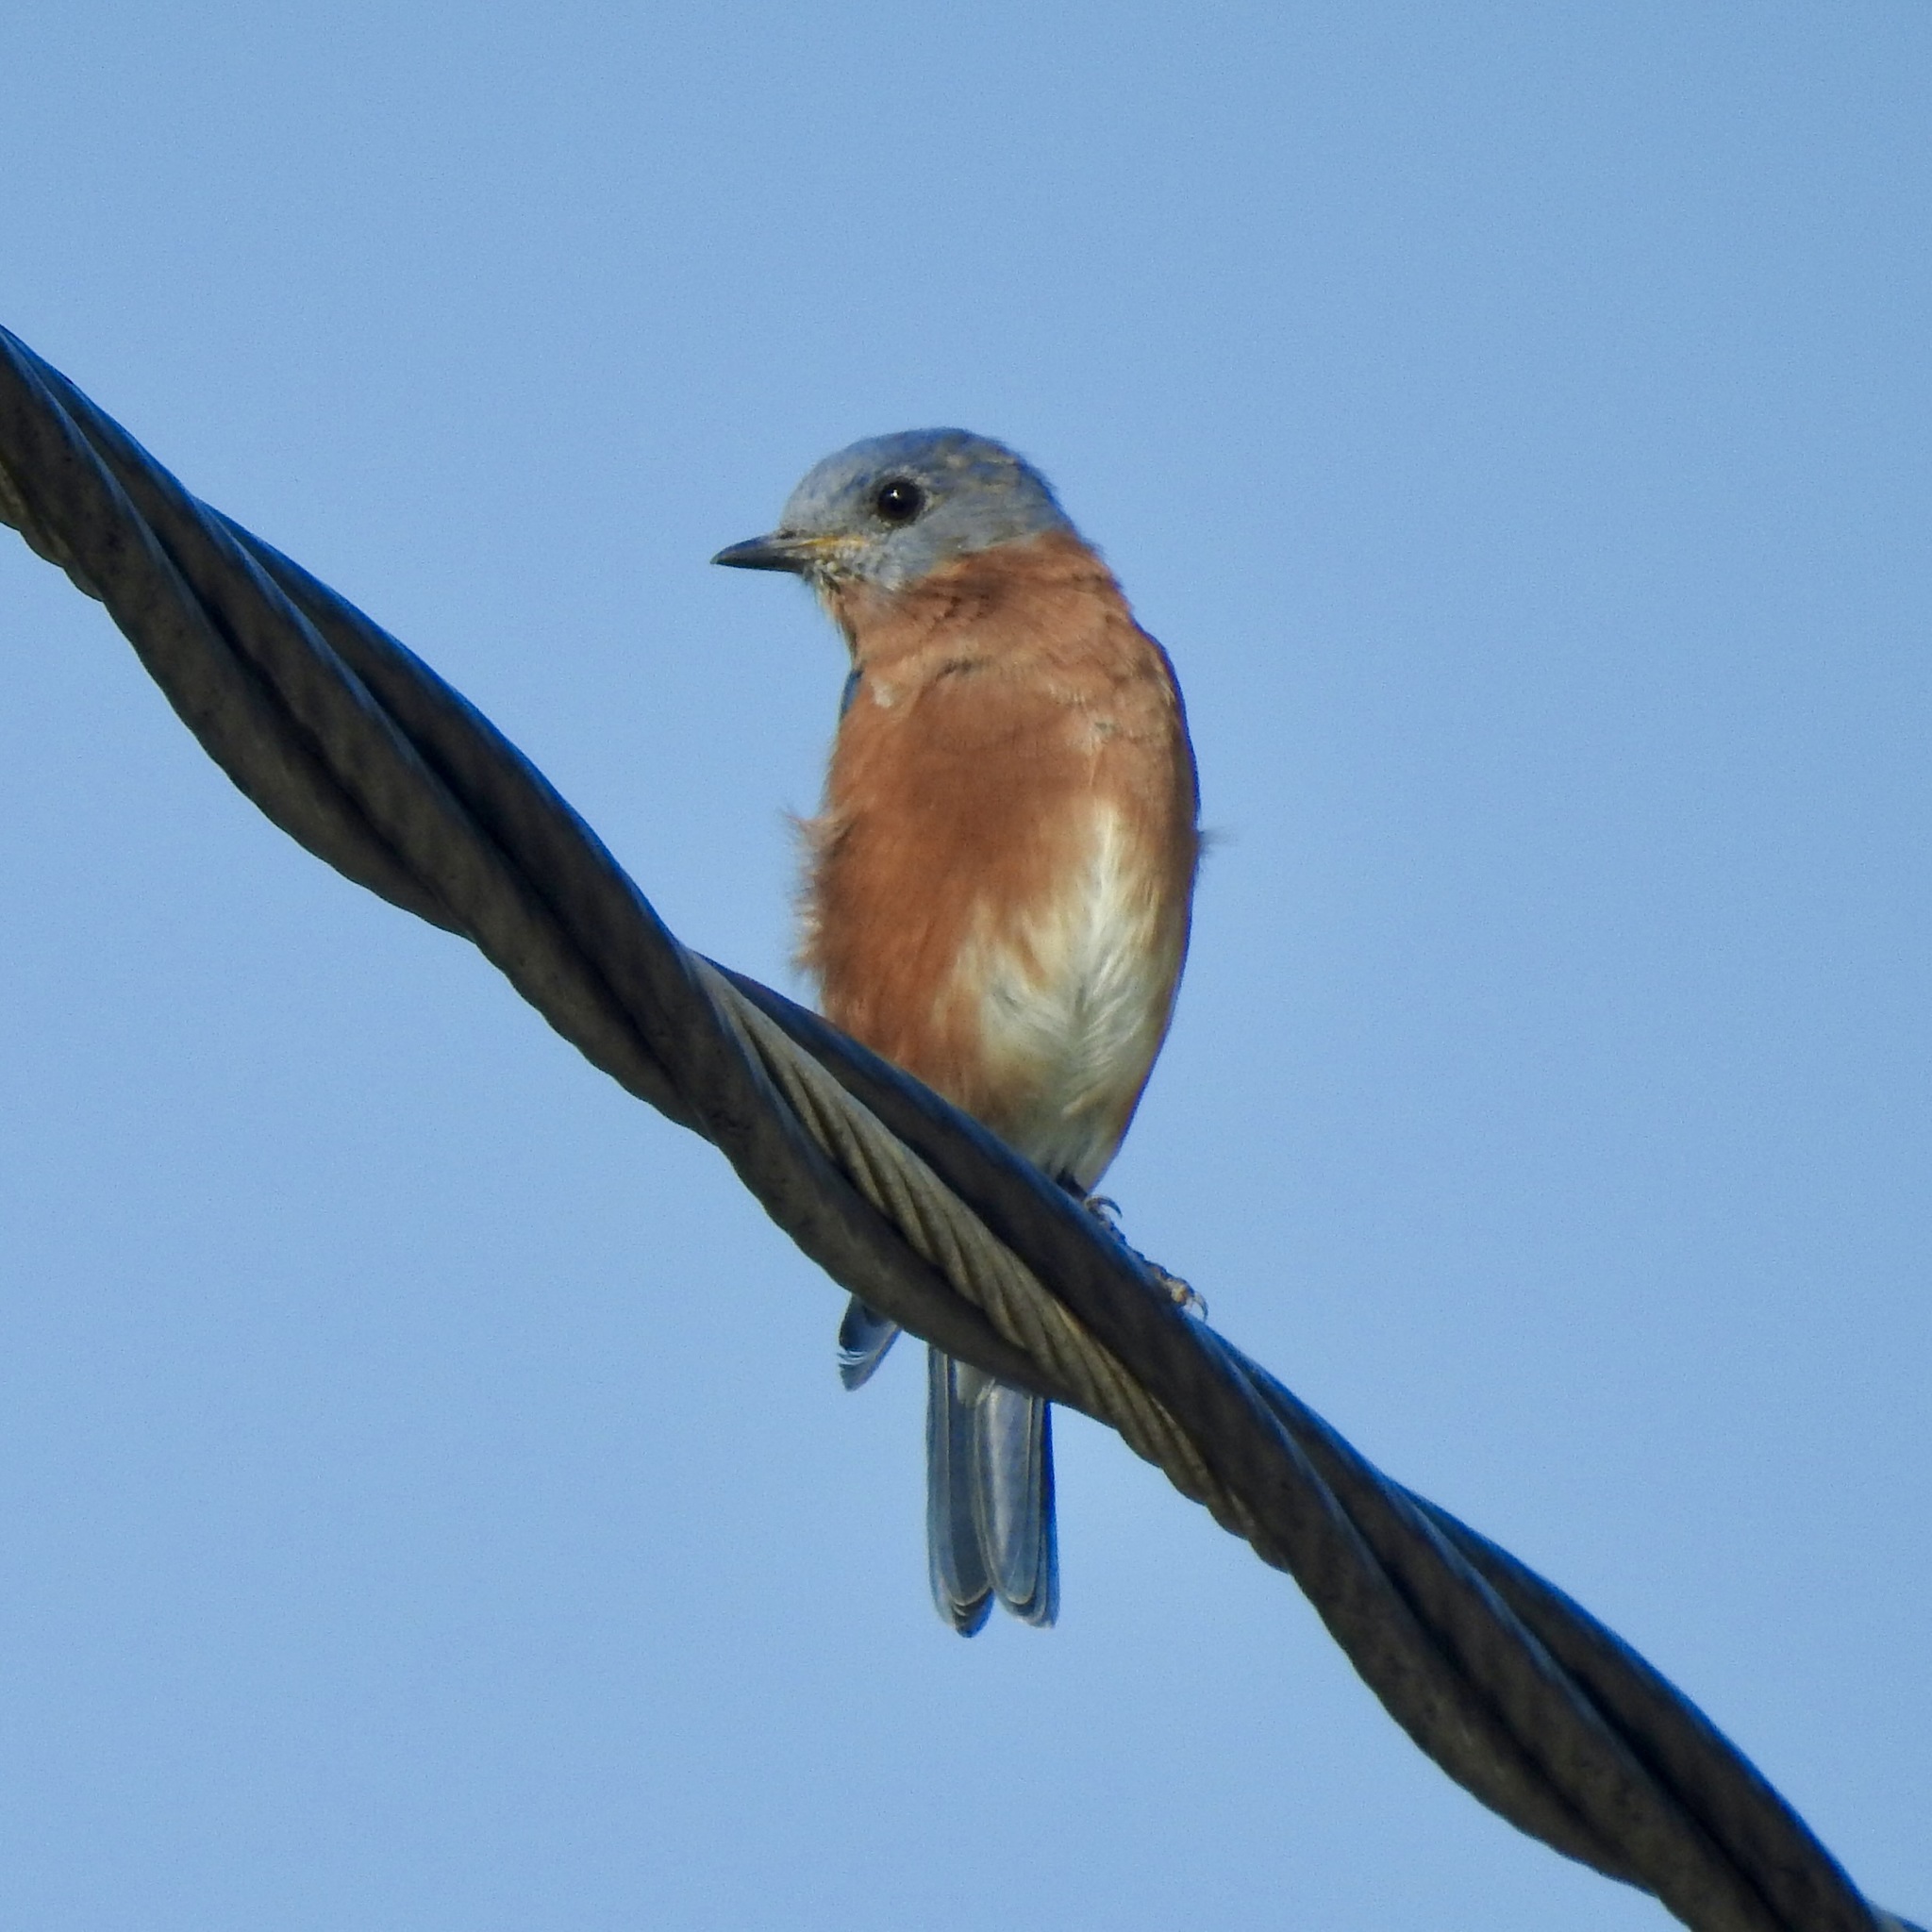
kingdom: Animalia
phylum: Chordata
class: Aves
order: Passeriformes
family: Turdidae
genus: Sialia
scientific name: Sialia sialis
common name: Eastern bluebird
